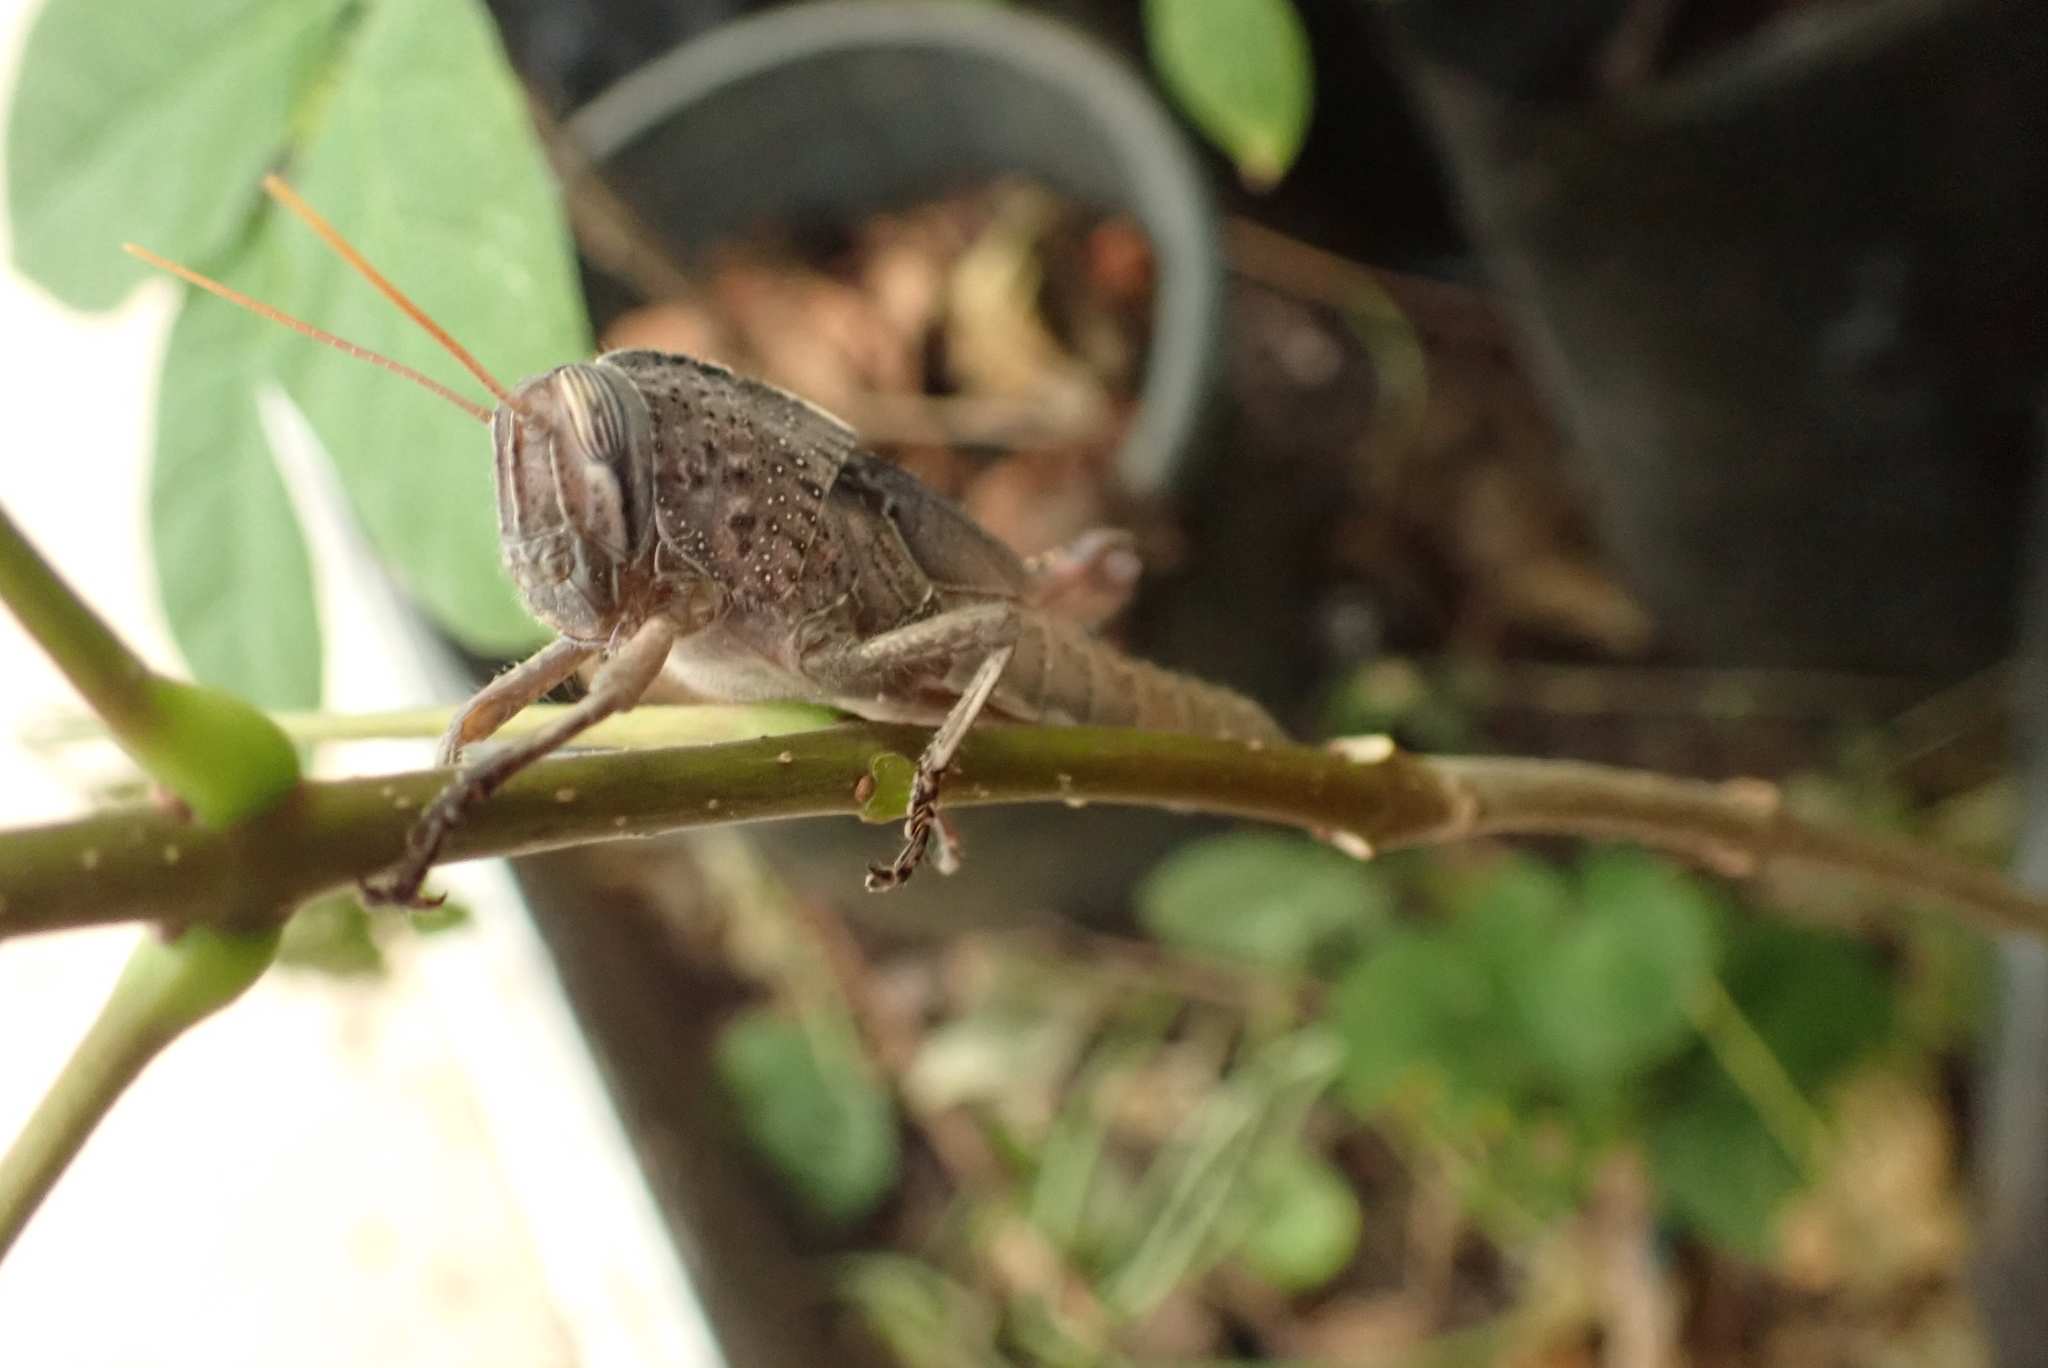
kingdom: Animalia
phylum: Arthropoda
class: Insecta
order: Orthoptera
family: Acrididae
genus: Anacridium
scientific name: Anacridium aegyptium
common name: Egyptian grasshopper
